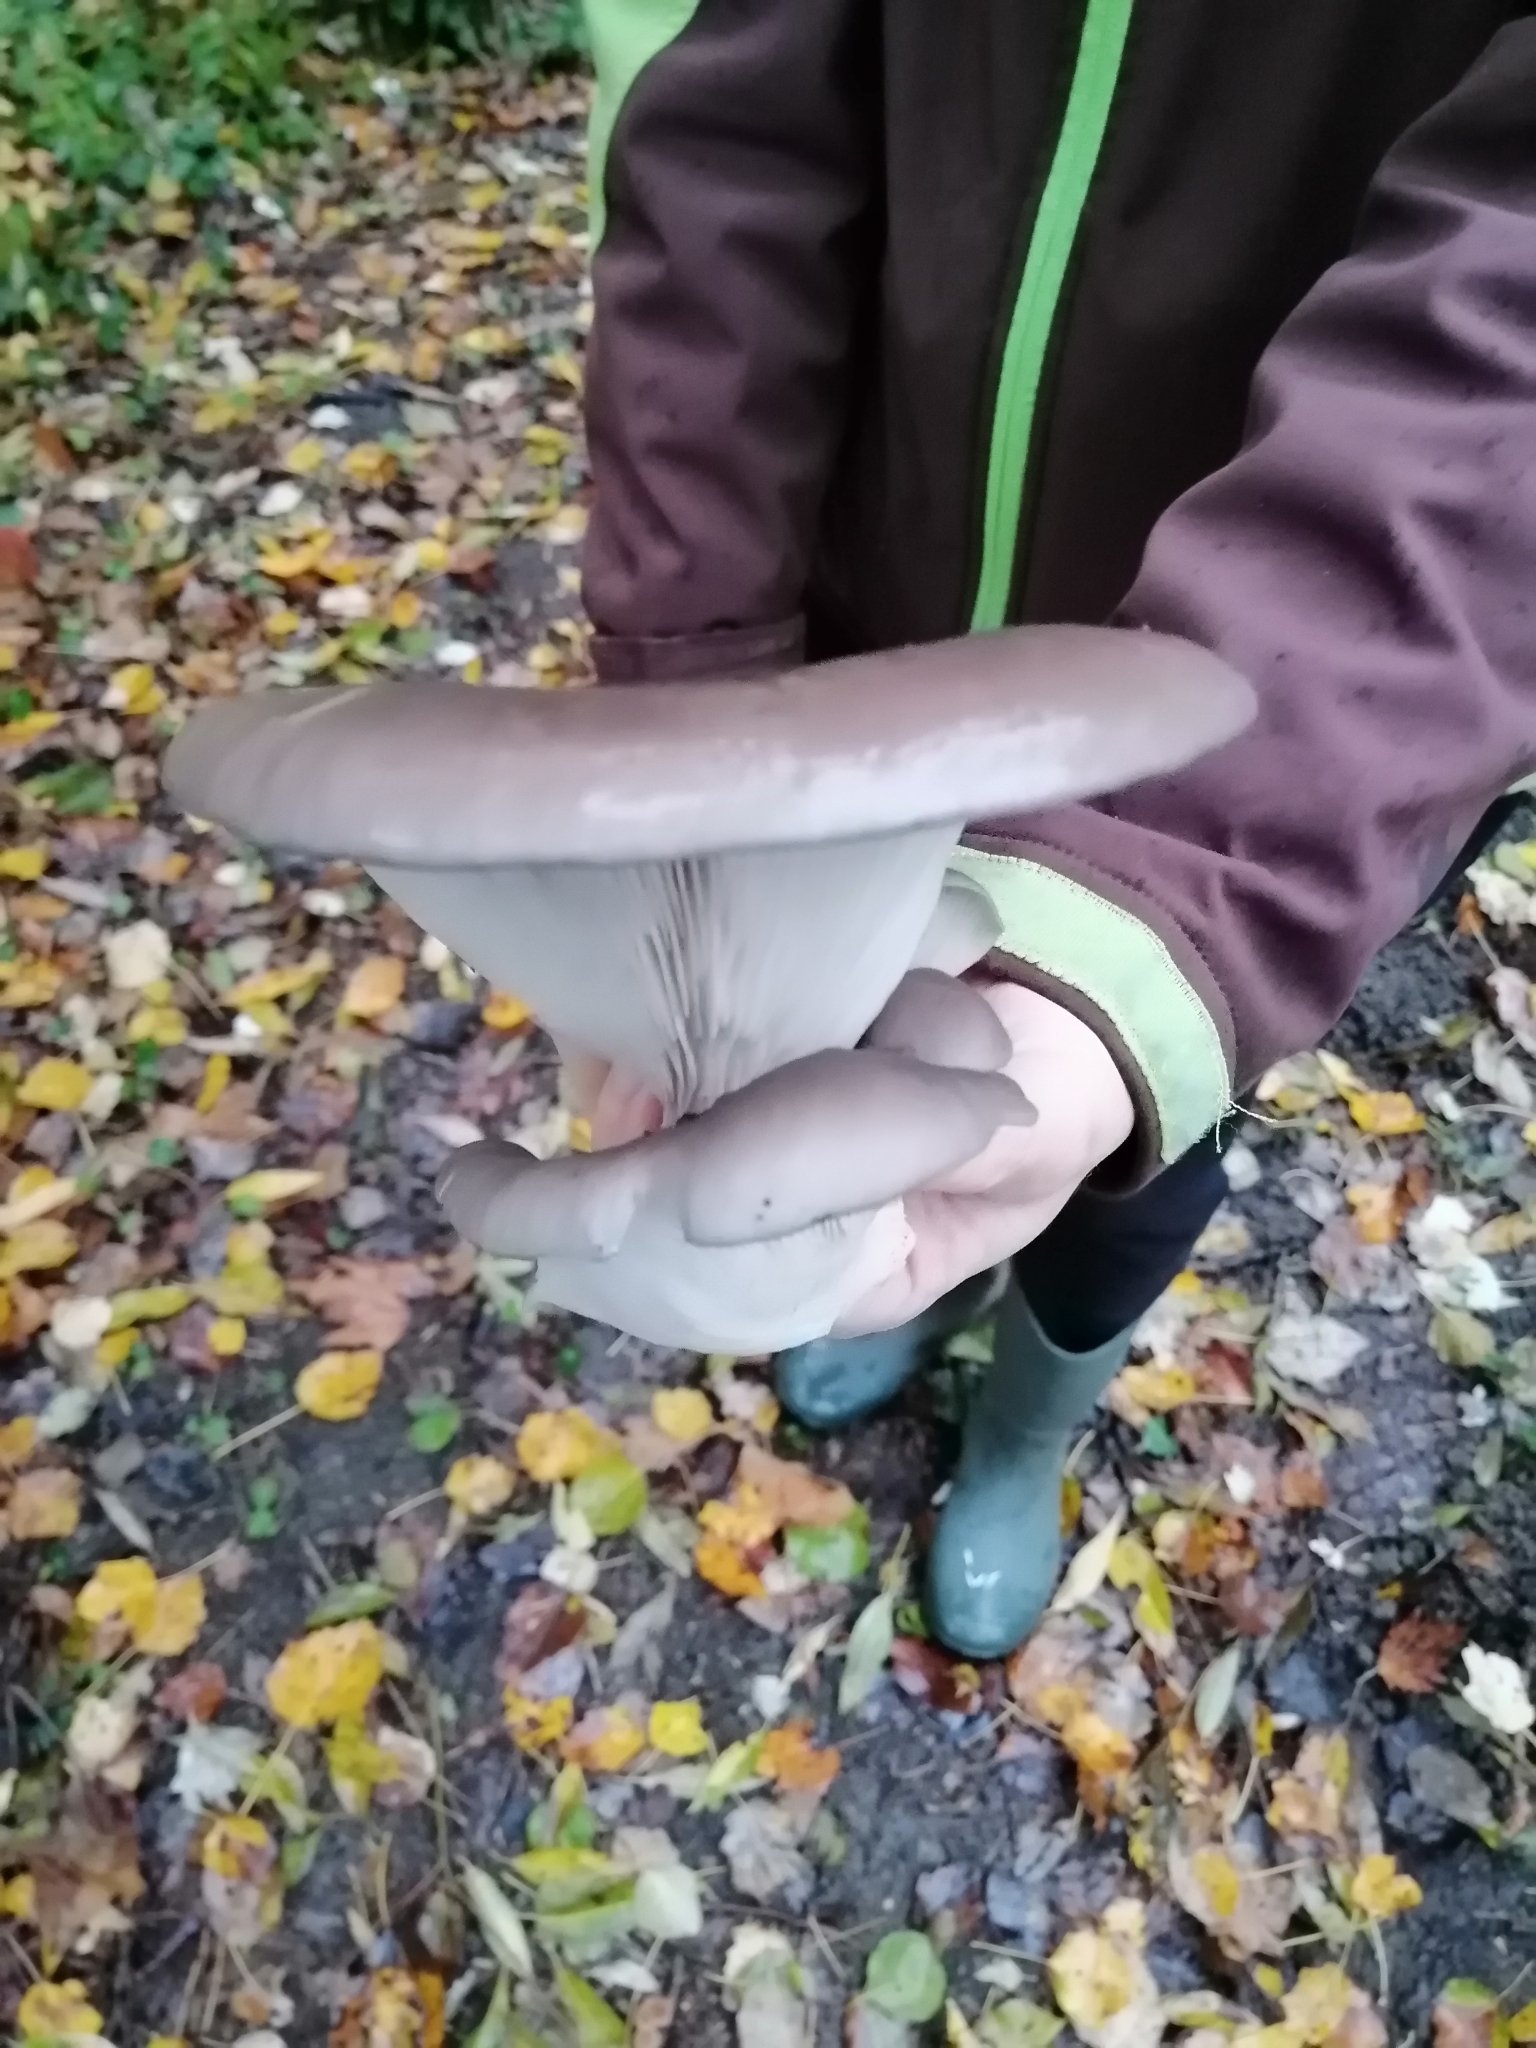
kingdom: Fungi
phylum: Basidiomycota
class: Agaricomycetes
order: Agaricales
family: Pleurotaceae
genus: Pleurotus
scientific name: Pleurotus ostreatus
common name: Oyster mushroom
